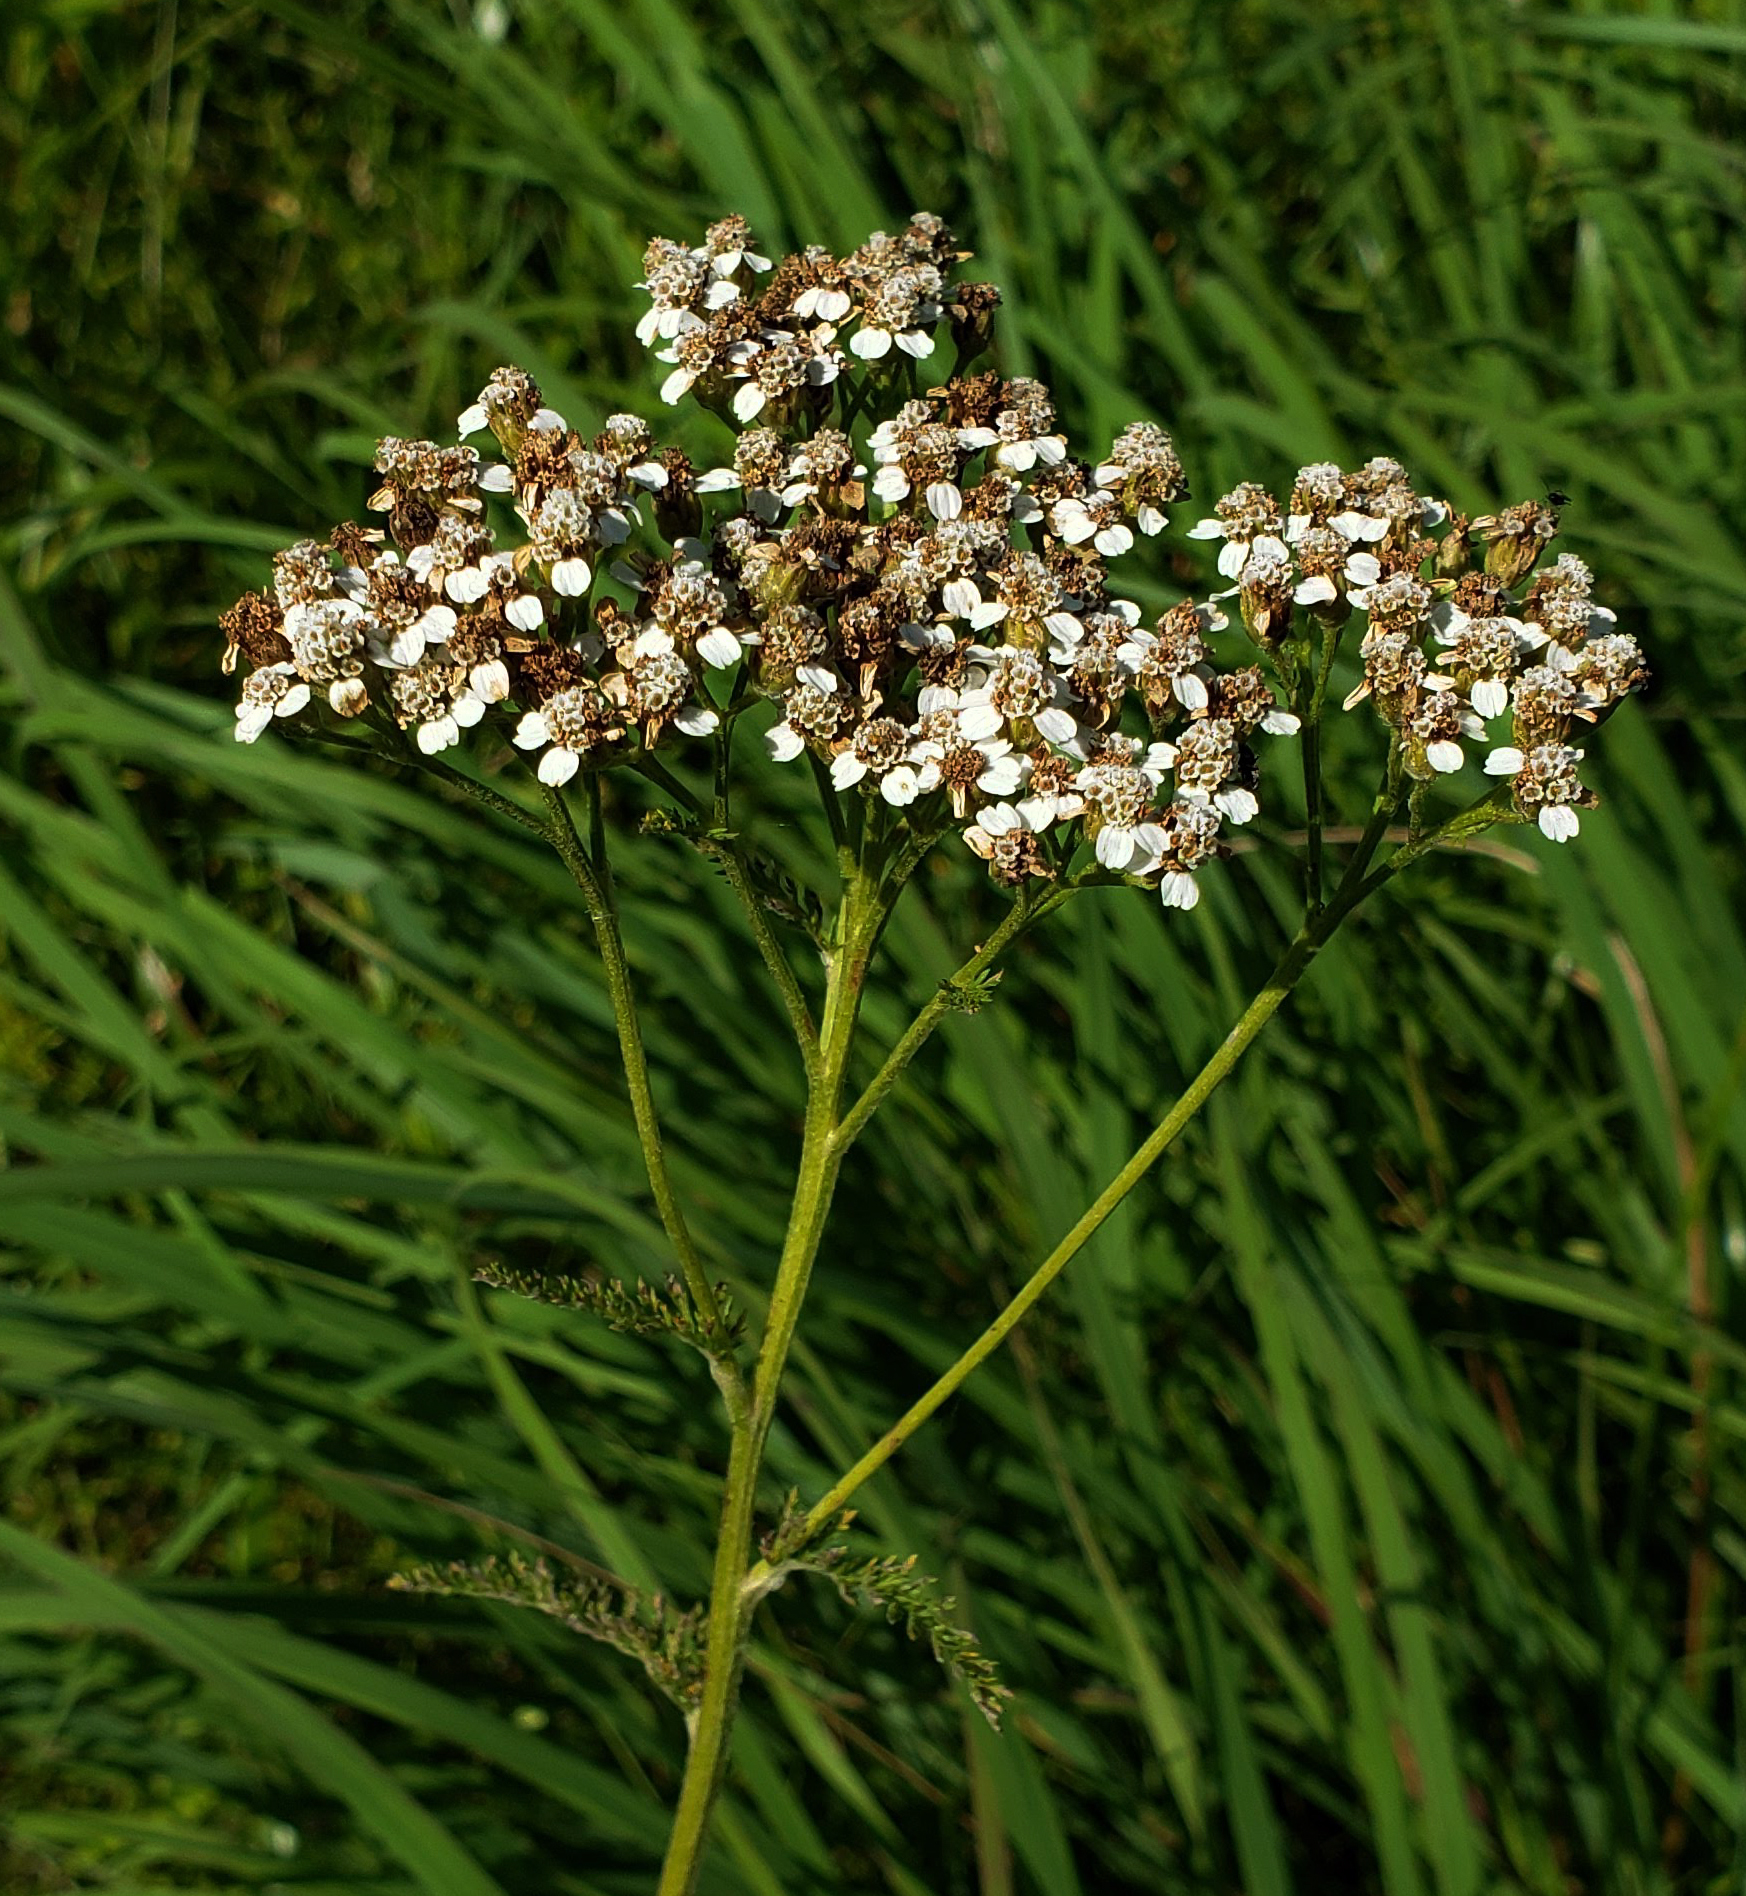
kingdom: Plantae
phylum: Tracheophyta
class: Magnoliopsida
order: Asterales
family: Asteraceae
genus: Achillea
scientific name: Achillea millefolium
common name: Yarrow
